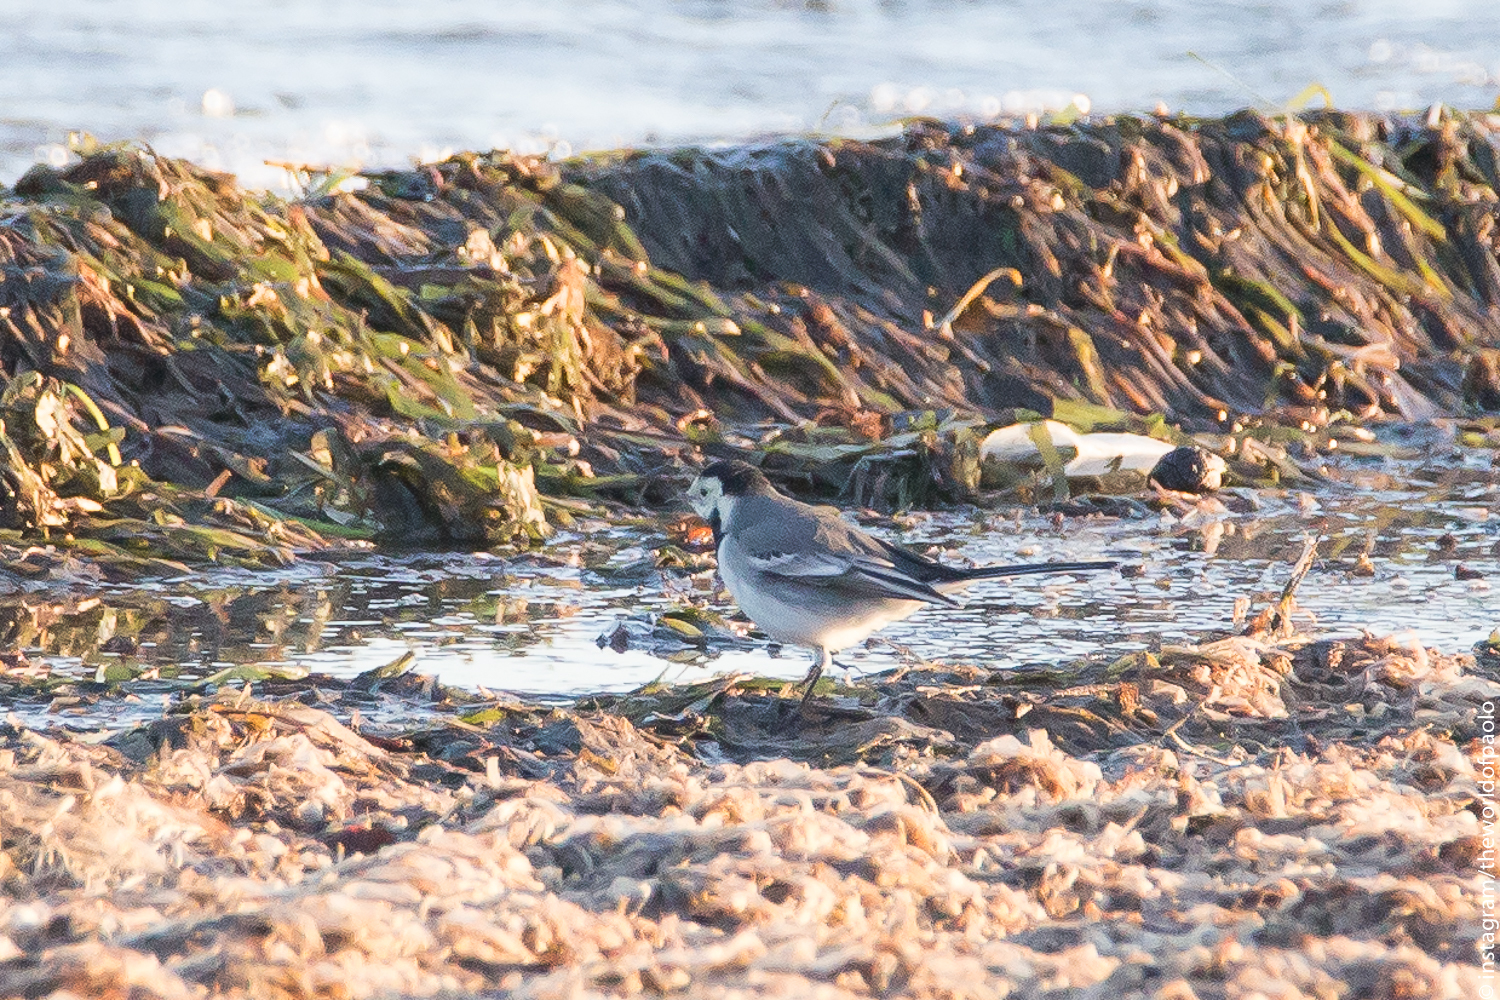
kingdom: Animalia
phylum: Chordata
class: Aves
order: Passeriformes
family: Motacillidae
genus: Motacilla
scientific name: Motacilla alba
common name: White wagtail
